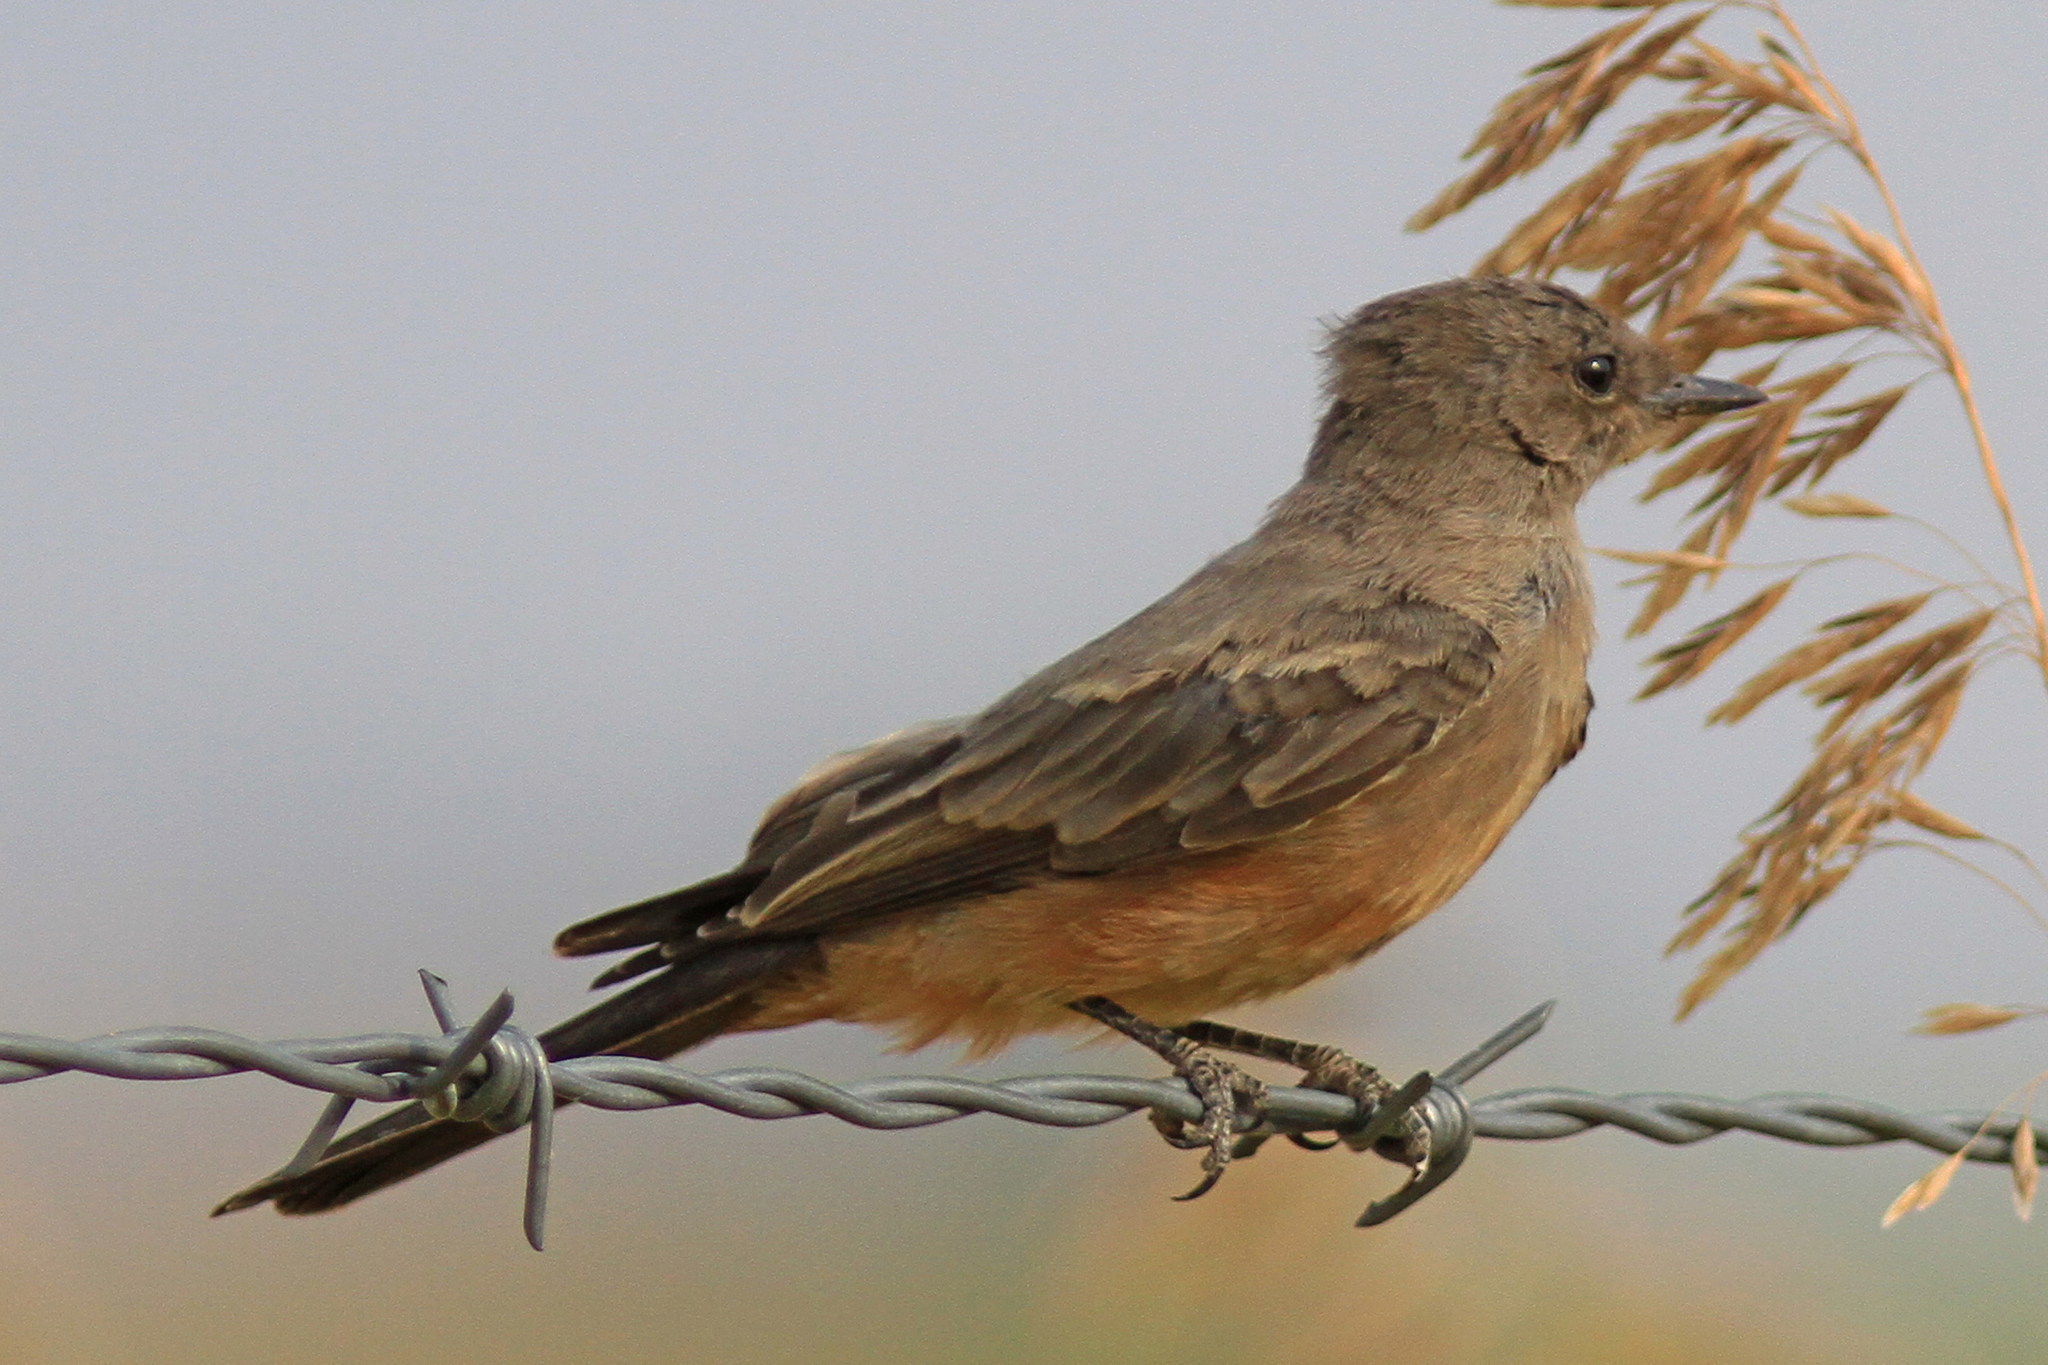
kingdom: Animalia
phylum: Chordata
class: Aves
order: Passeriformes
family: Tyrannidae
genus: Sayornis
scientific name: Sayornis saya
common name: Say's phoebe
